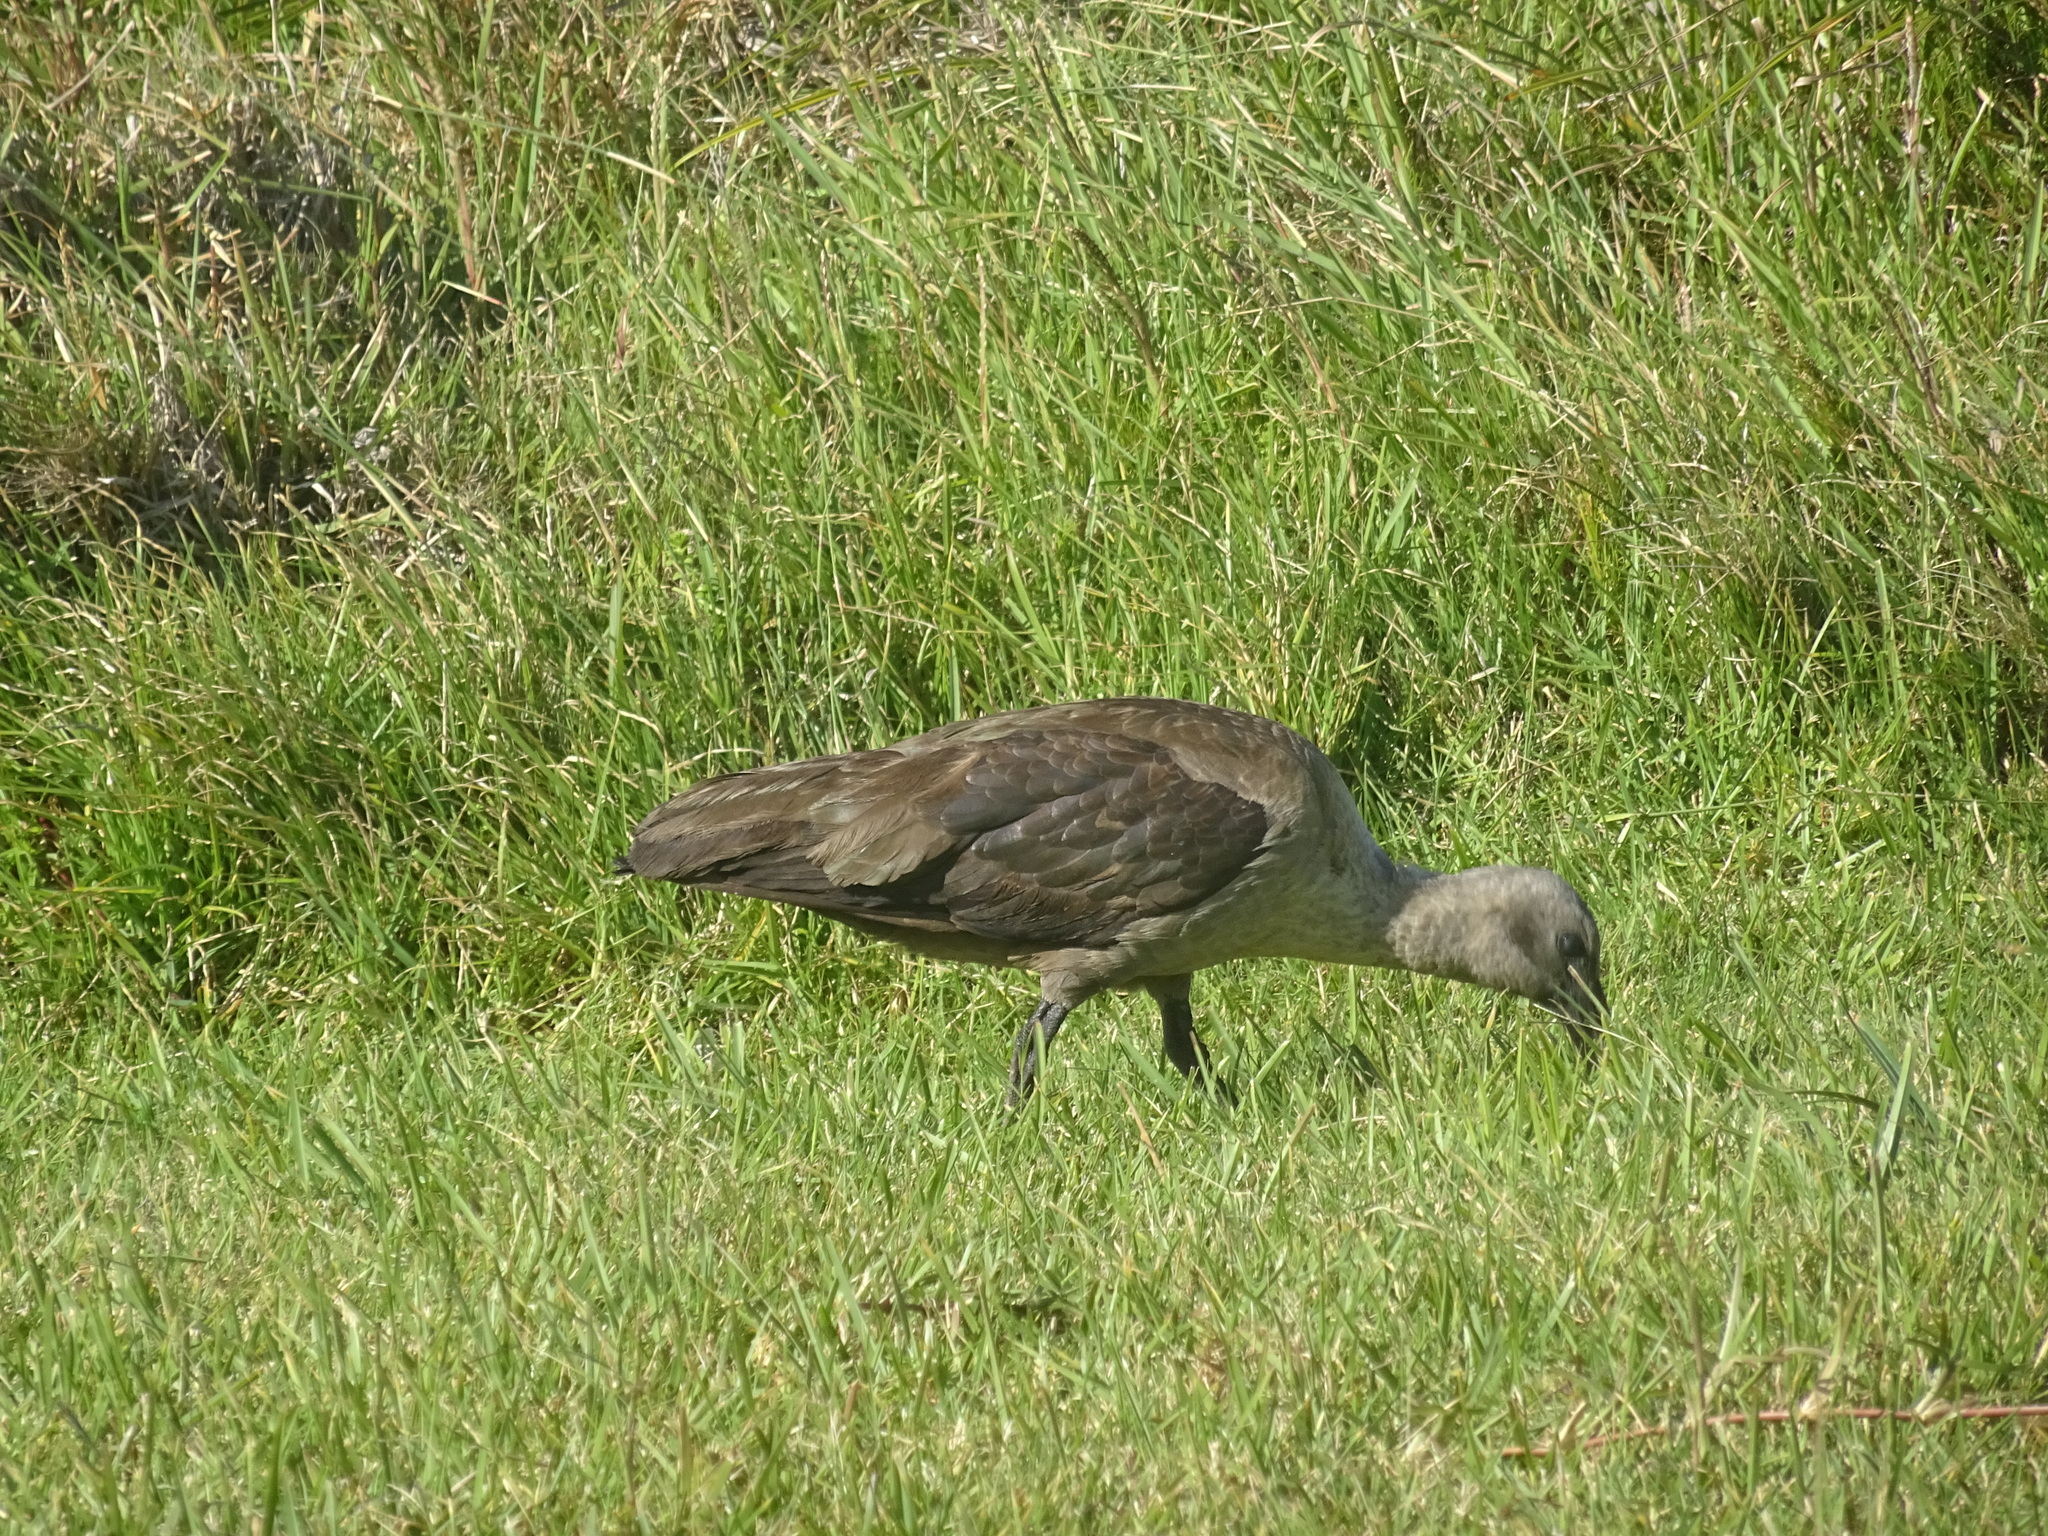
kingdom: Animalia
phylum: Chordata
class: Aves
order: Pelecaniformes
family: Threskiornithidae
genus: Bostrychia
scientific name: Bostrychia hagedash
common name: Hadada ibis
